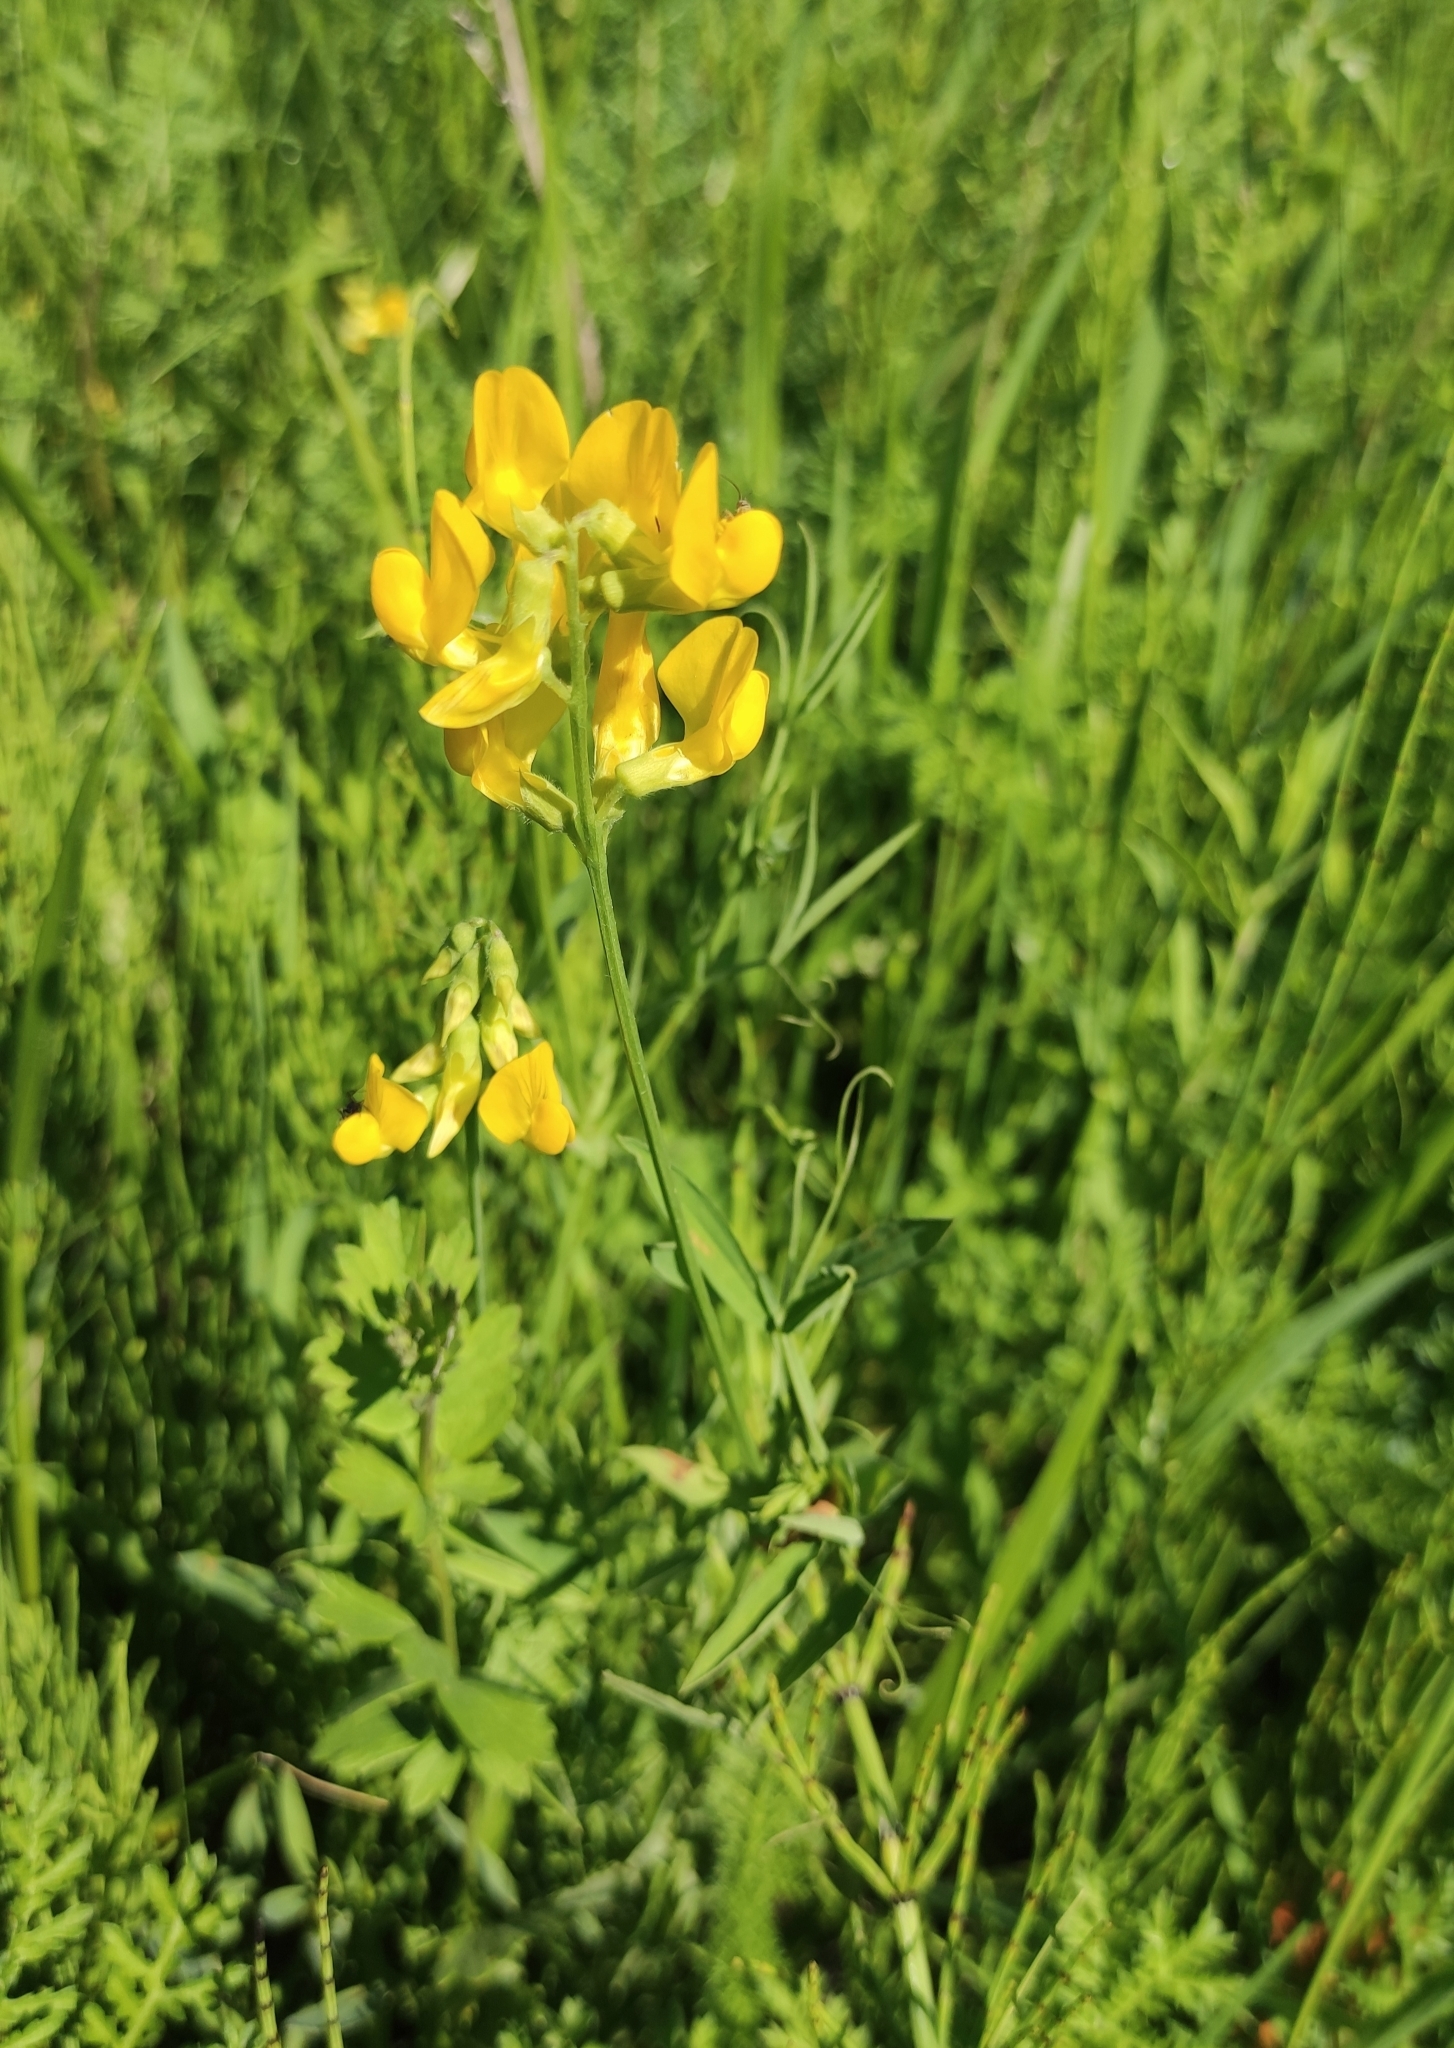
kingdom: Plantae
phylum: Tracheophyta
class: Magnoliopsida
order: Fabales
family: Fabaceae
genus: Lathyrus
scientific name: Lathyrus pratensis
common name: Meadow vetchling
